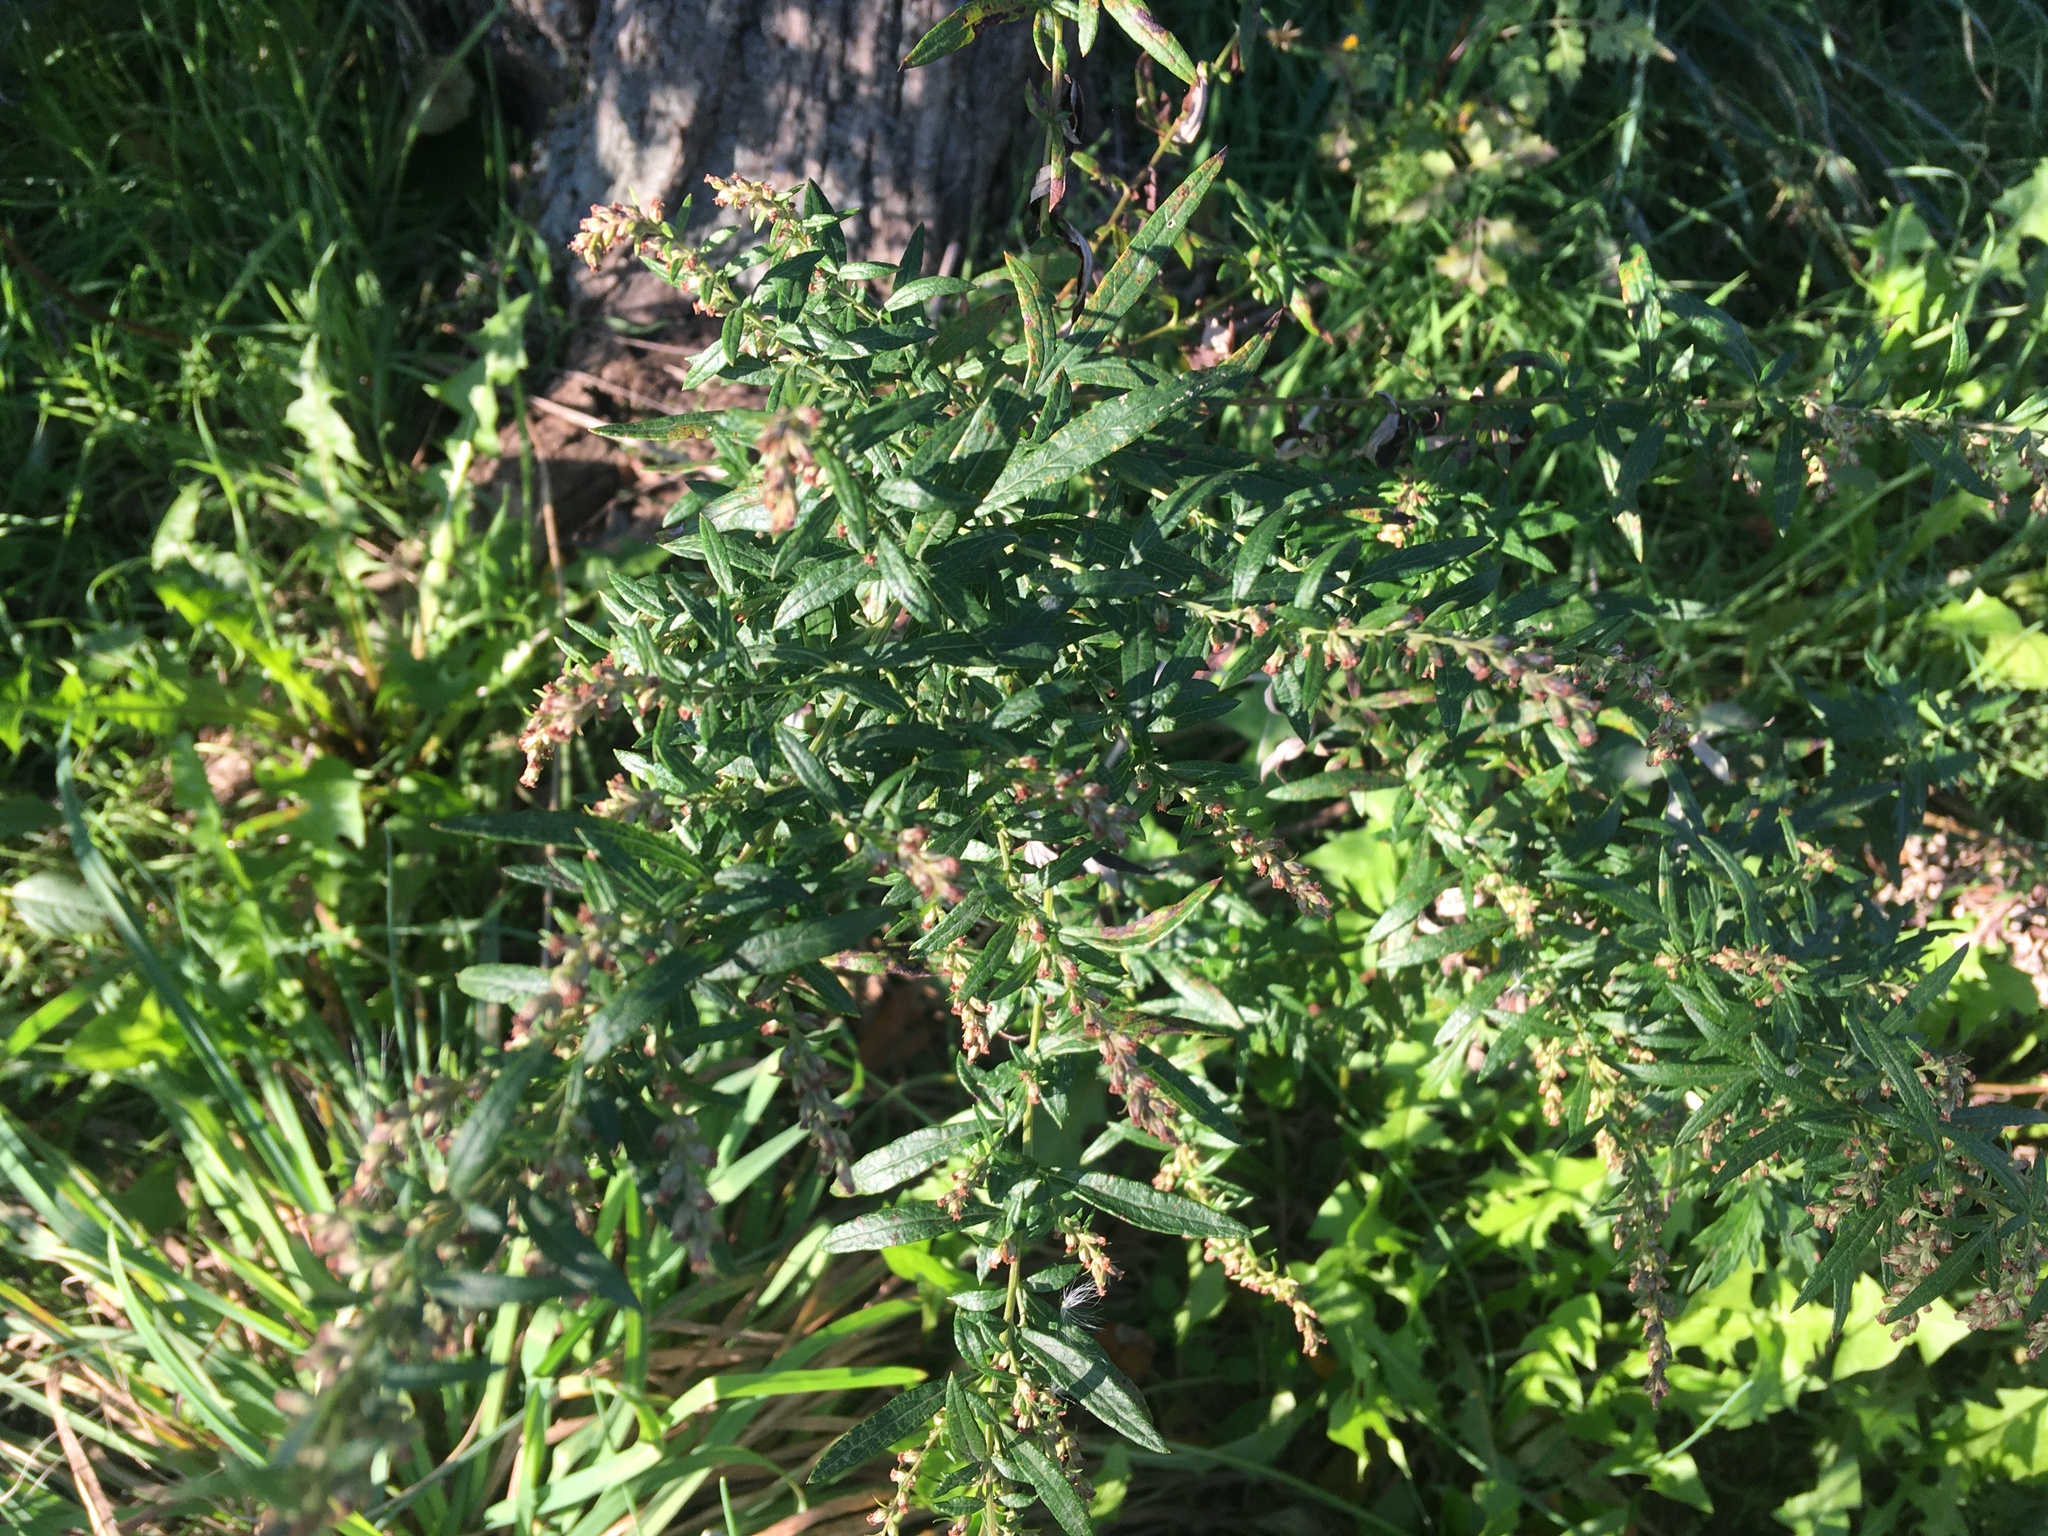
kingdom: Plantae
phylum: Tracheophyta
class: Magnoliopsida
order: Asterales
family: Asteraceae
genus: Artemisia
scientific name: Artemisia vulgaris
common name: Mugwort
